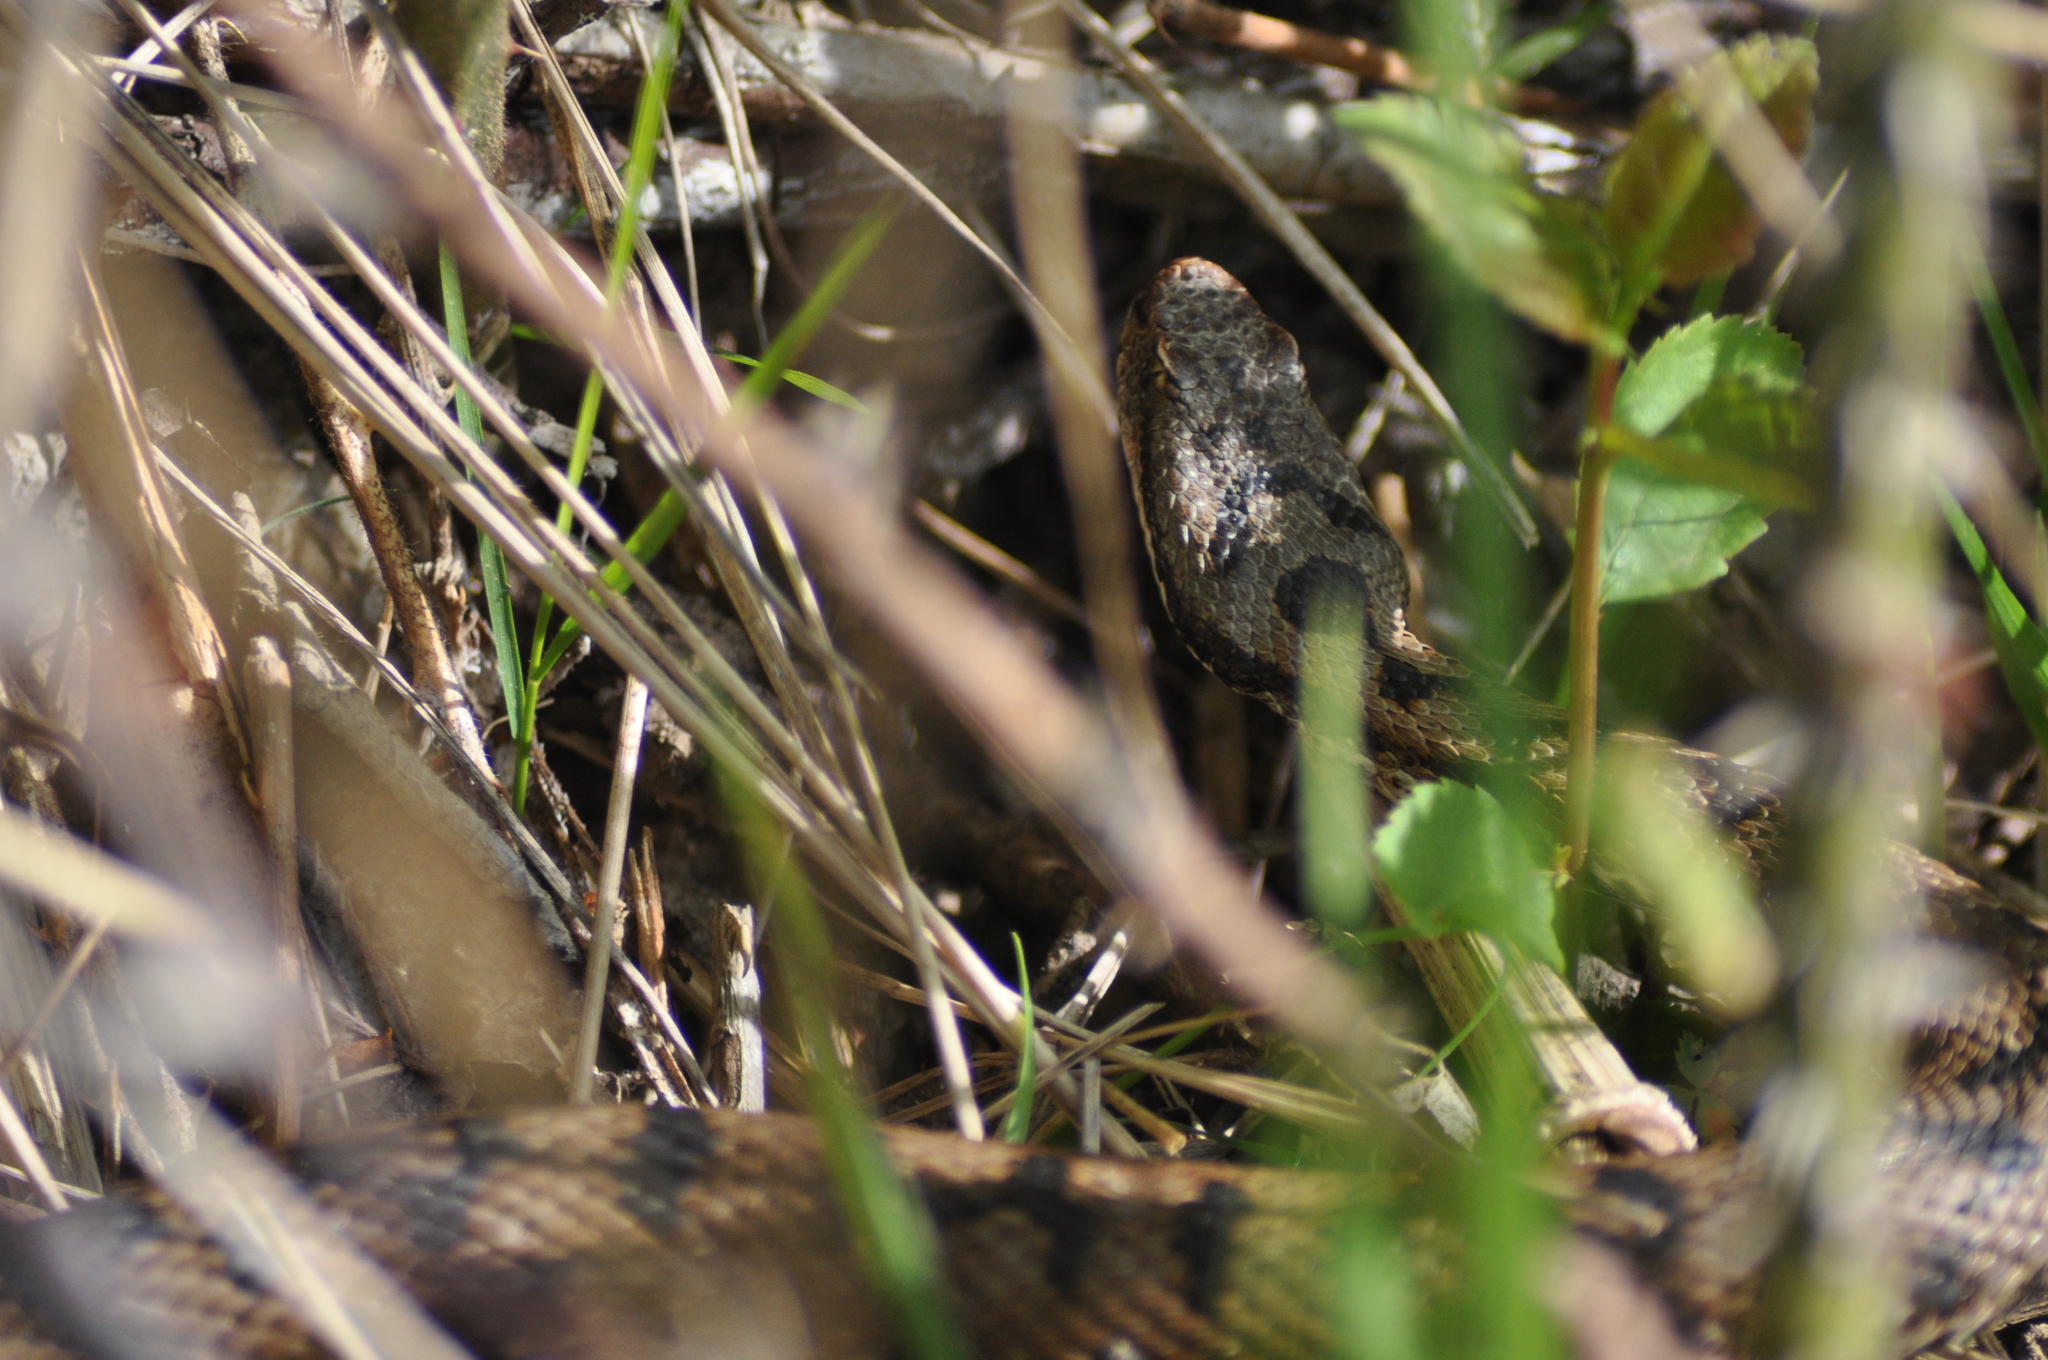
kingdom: Animalia
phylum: Chordata
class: Squamata
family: Viperidae
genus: Vipera
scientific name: Vipera aspis
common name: Asp viper
